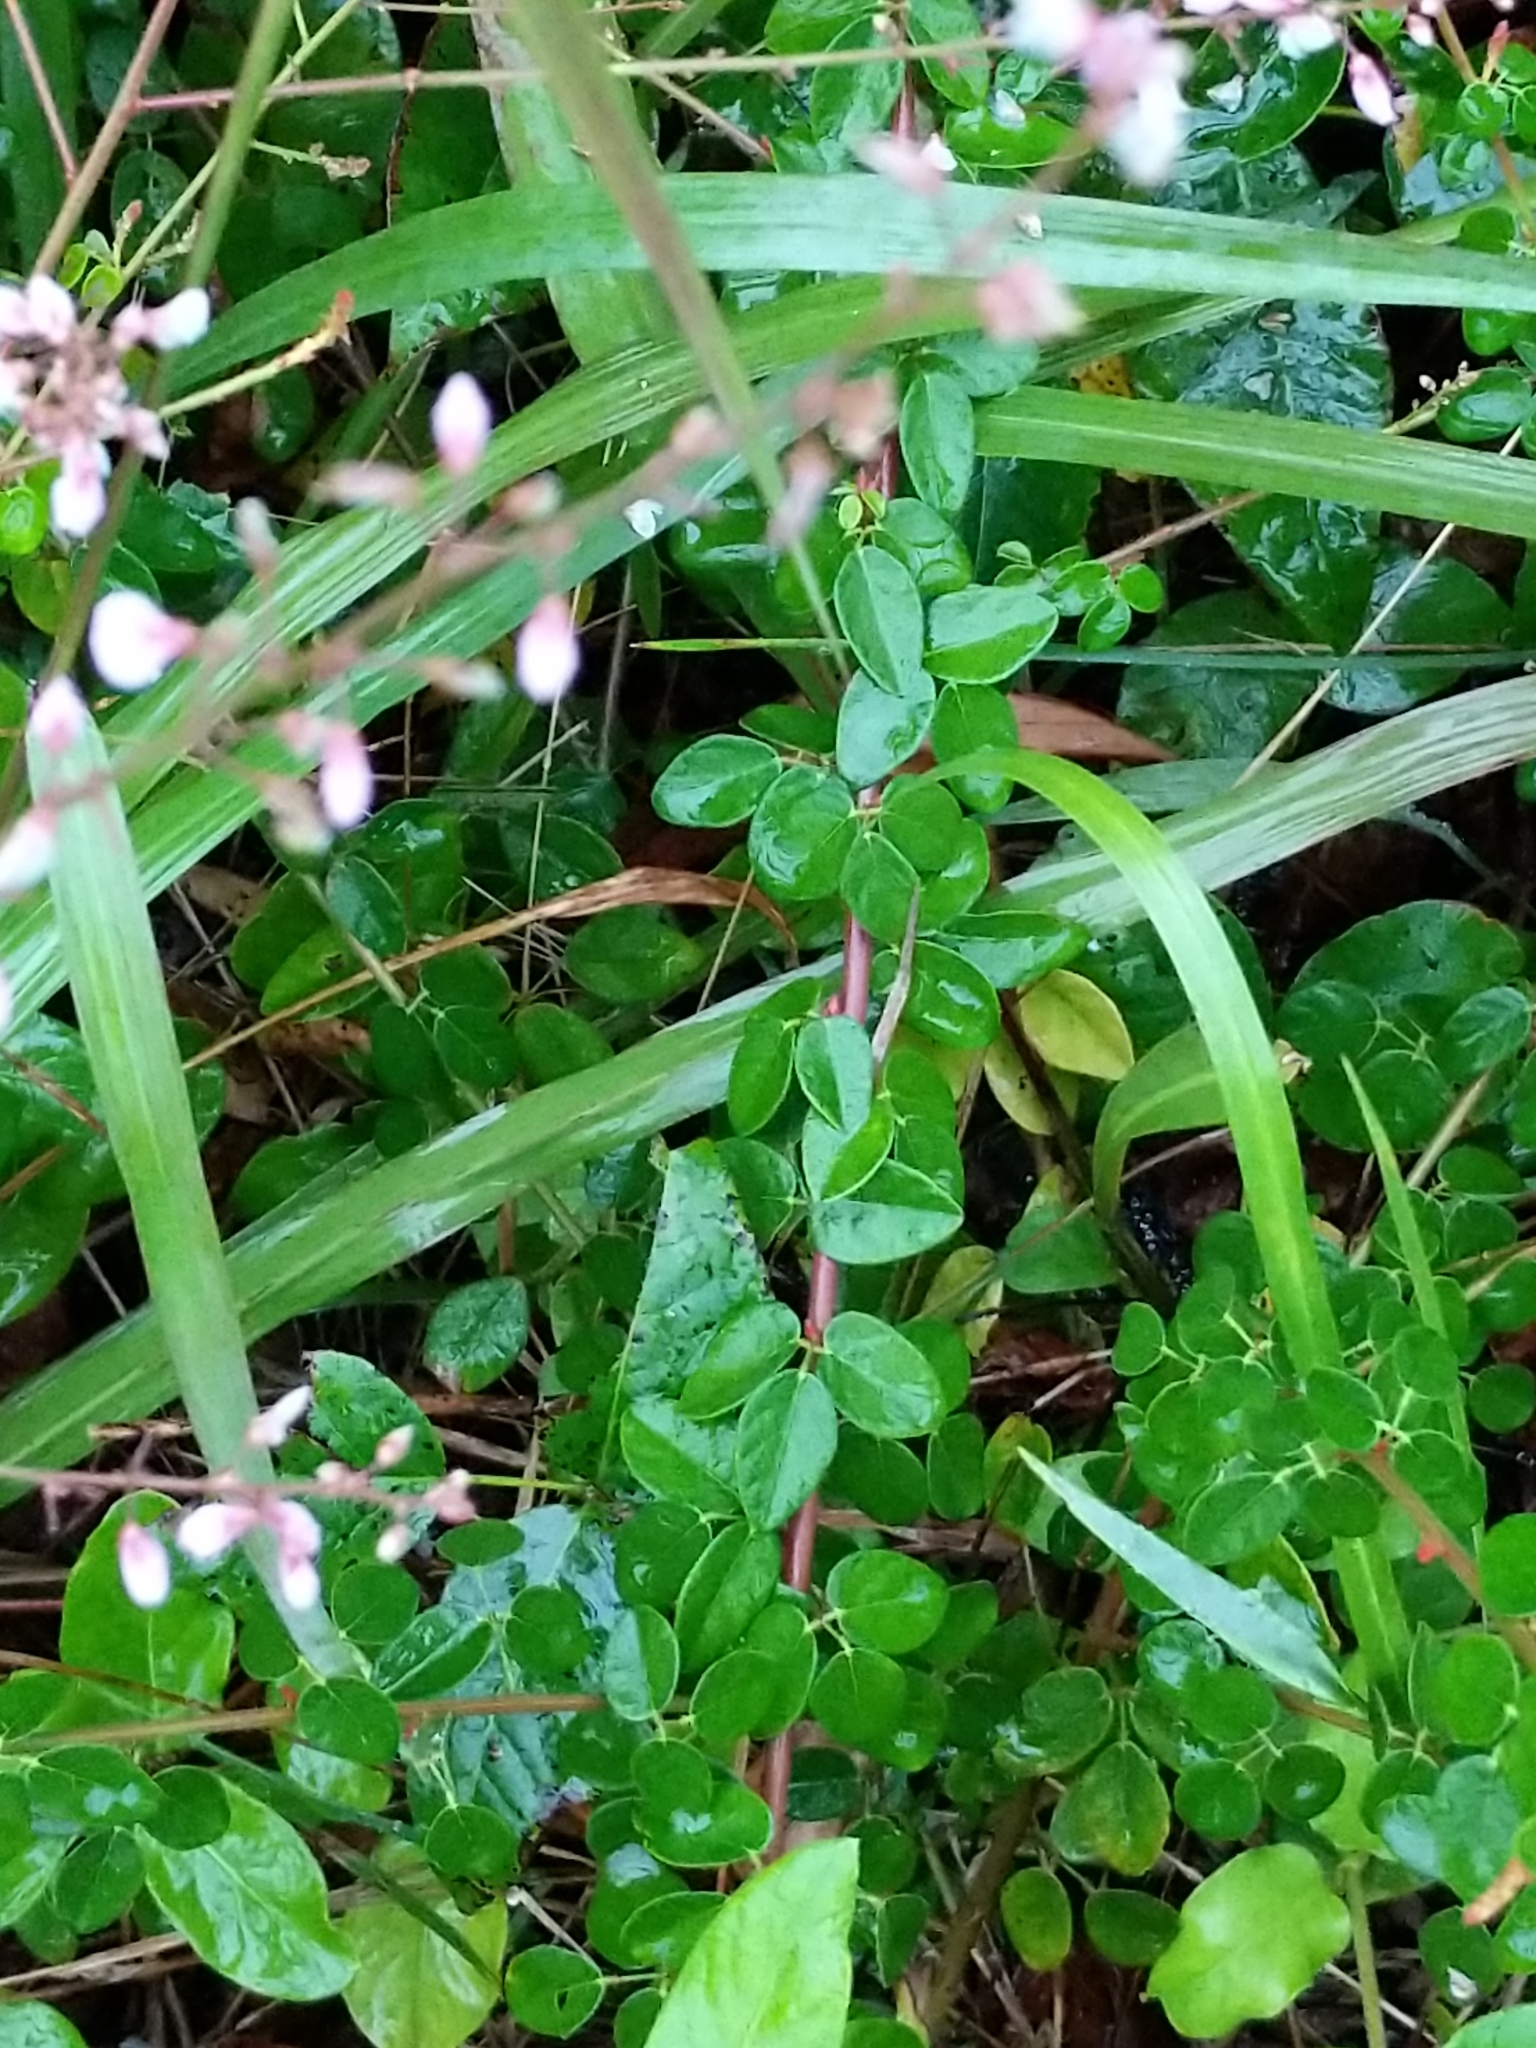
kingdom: Plantae
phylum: Tracheophyta
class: Magnoliopsida
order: Fabales
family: Fabaceae
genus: Desmodium
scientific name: Desmodium ciliare
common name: Hairy small-leaf ticktrefoil
